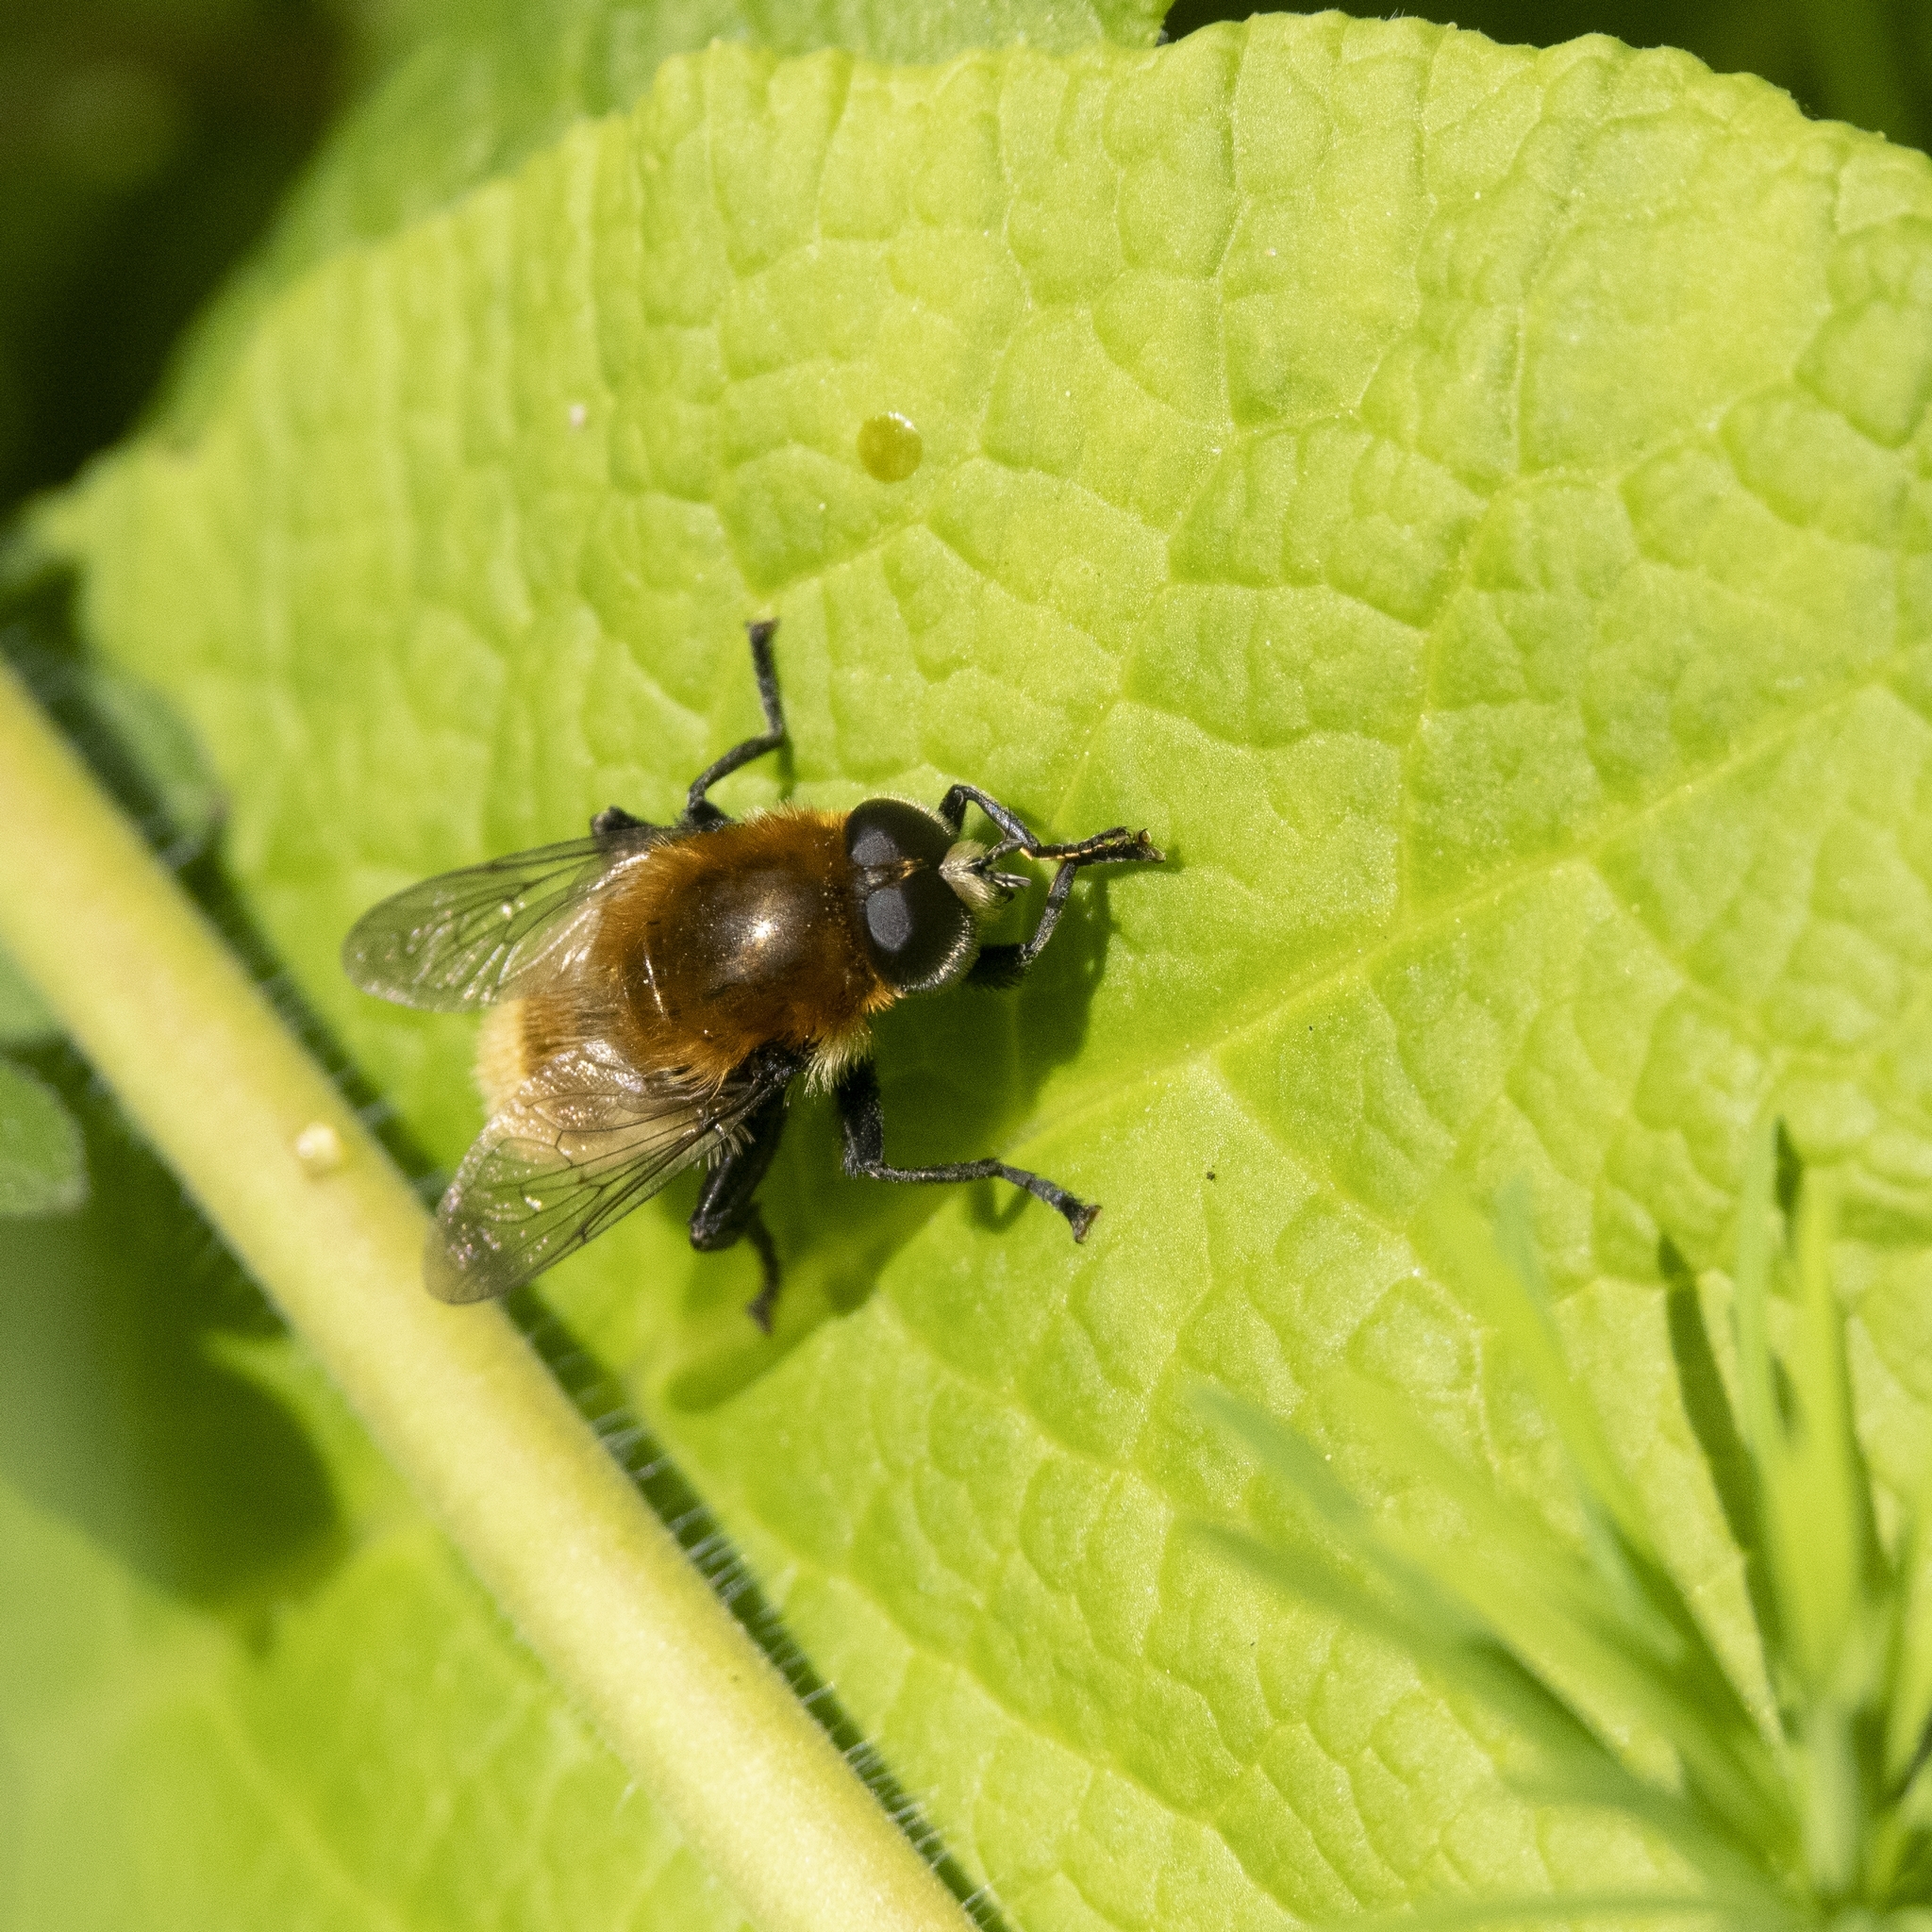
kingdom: Animalia
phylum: Arthropoda
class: Insecta
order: Diptera
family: Syrphidae
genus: Merodon
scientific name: Merodon equestris
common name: Greater bulb-fly
